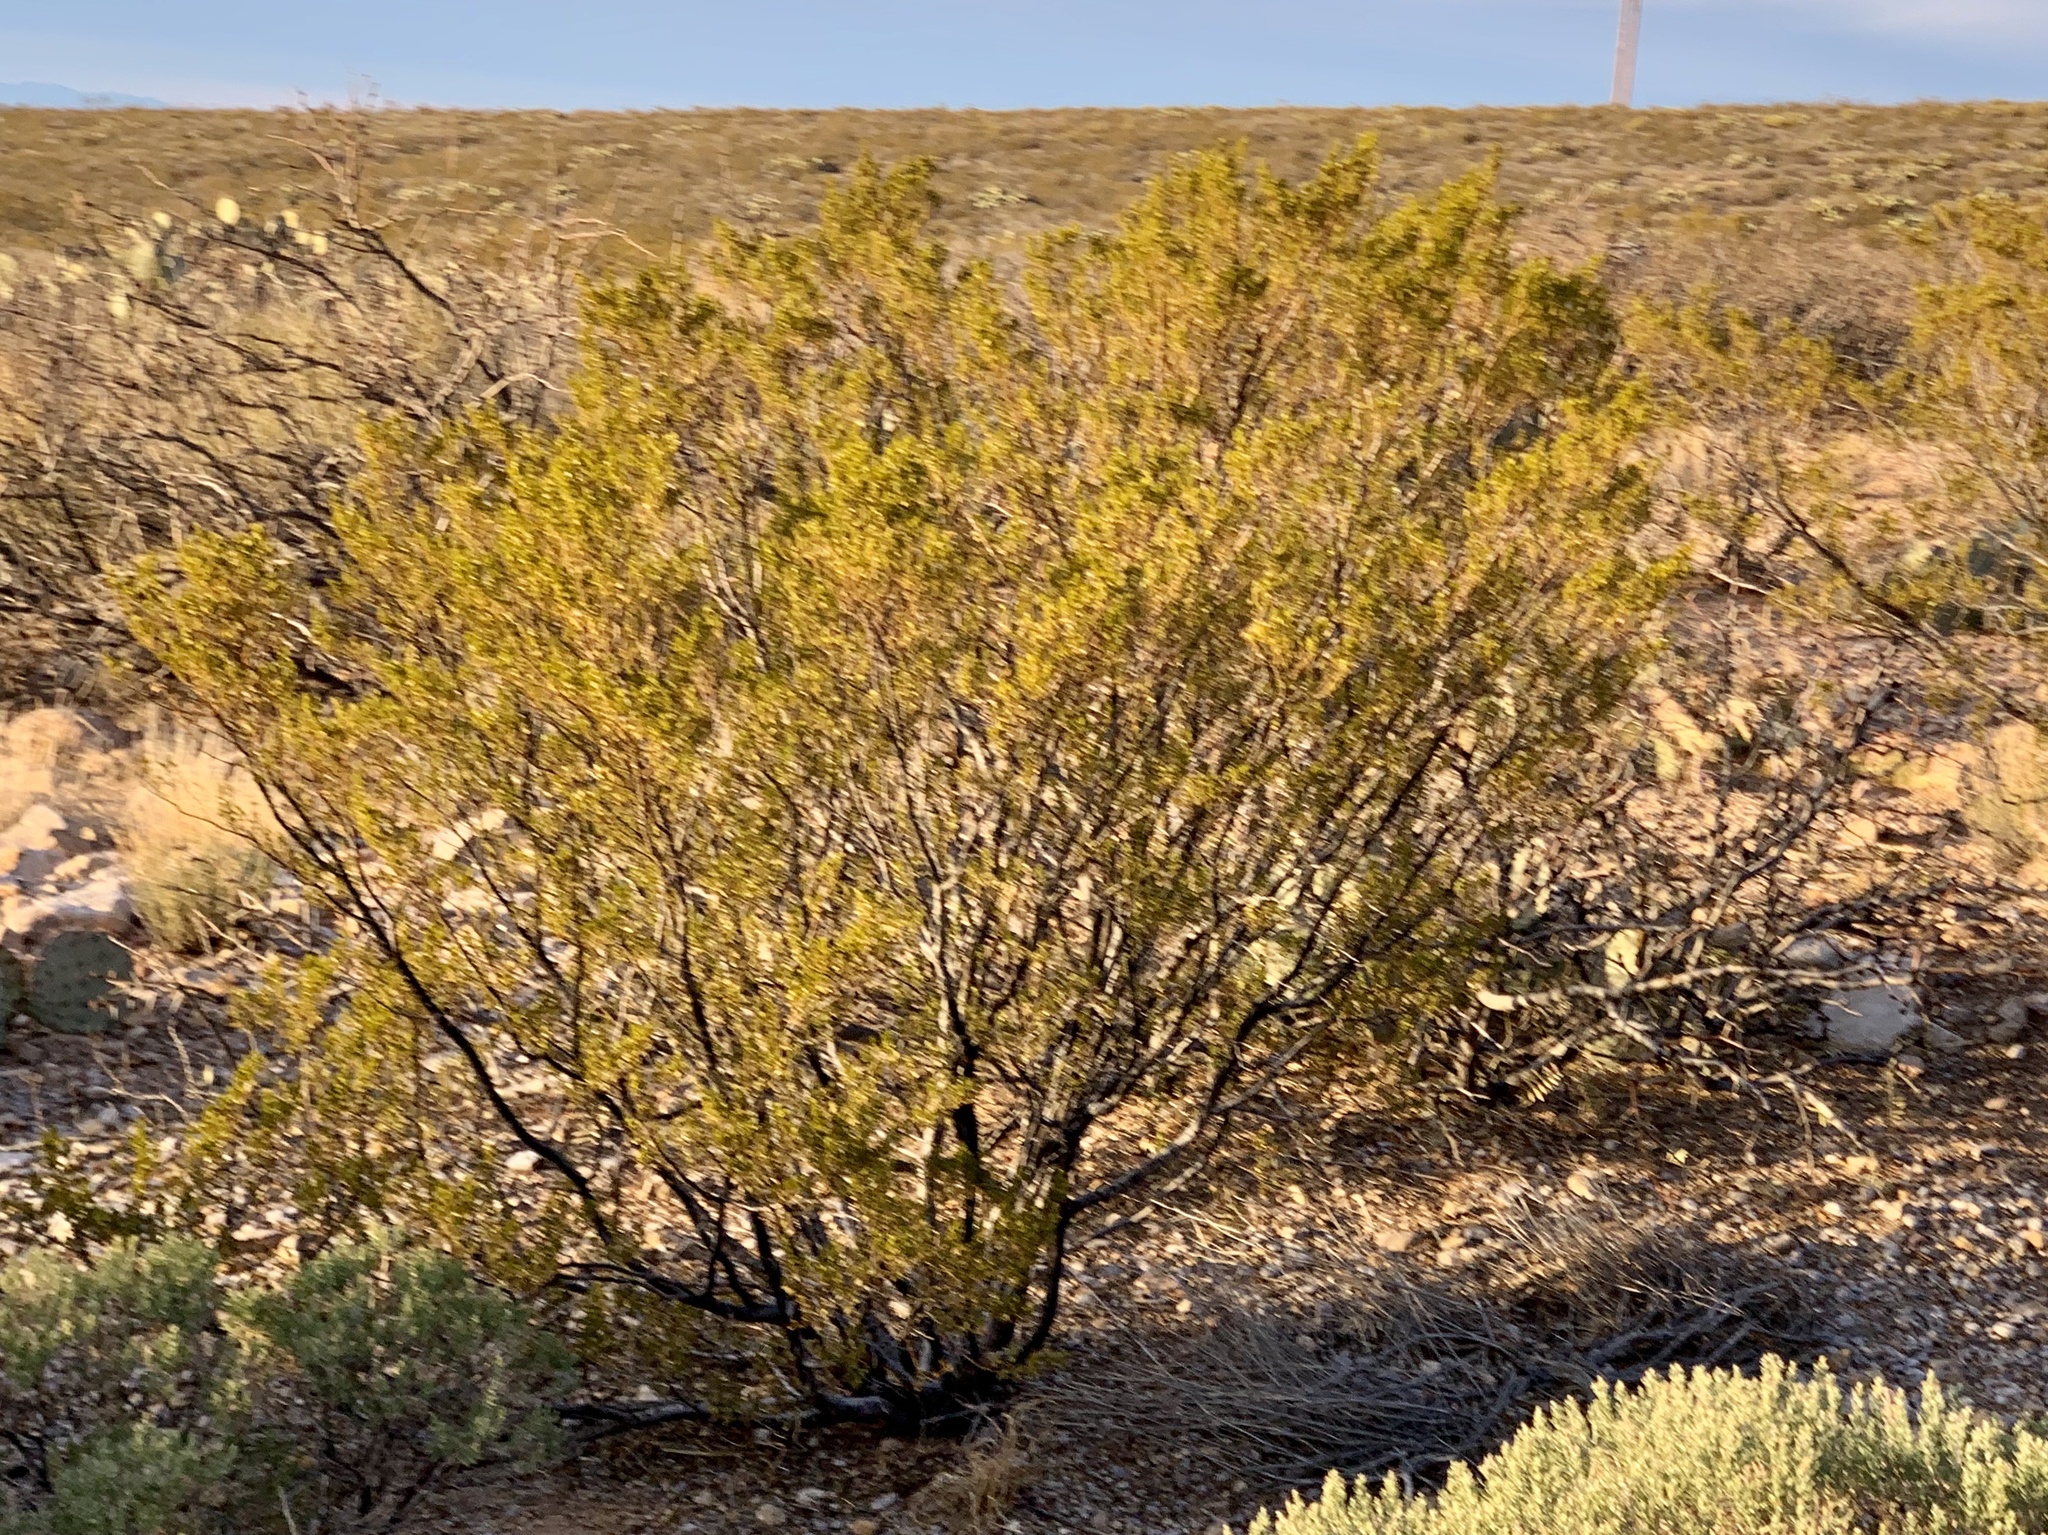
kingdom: Plantae
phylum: Tracheophyta
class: Magnoliopsida
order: Zygophyllales
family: Zygophyllaceae
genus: Larrea
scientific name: Larrea tridentata
